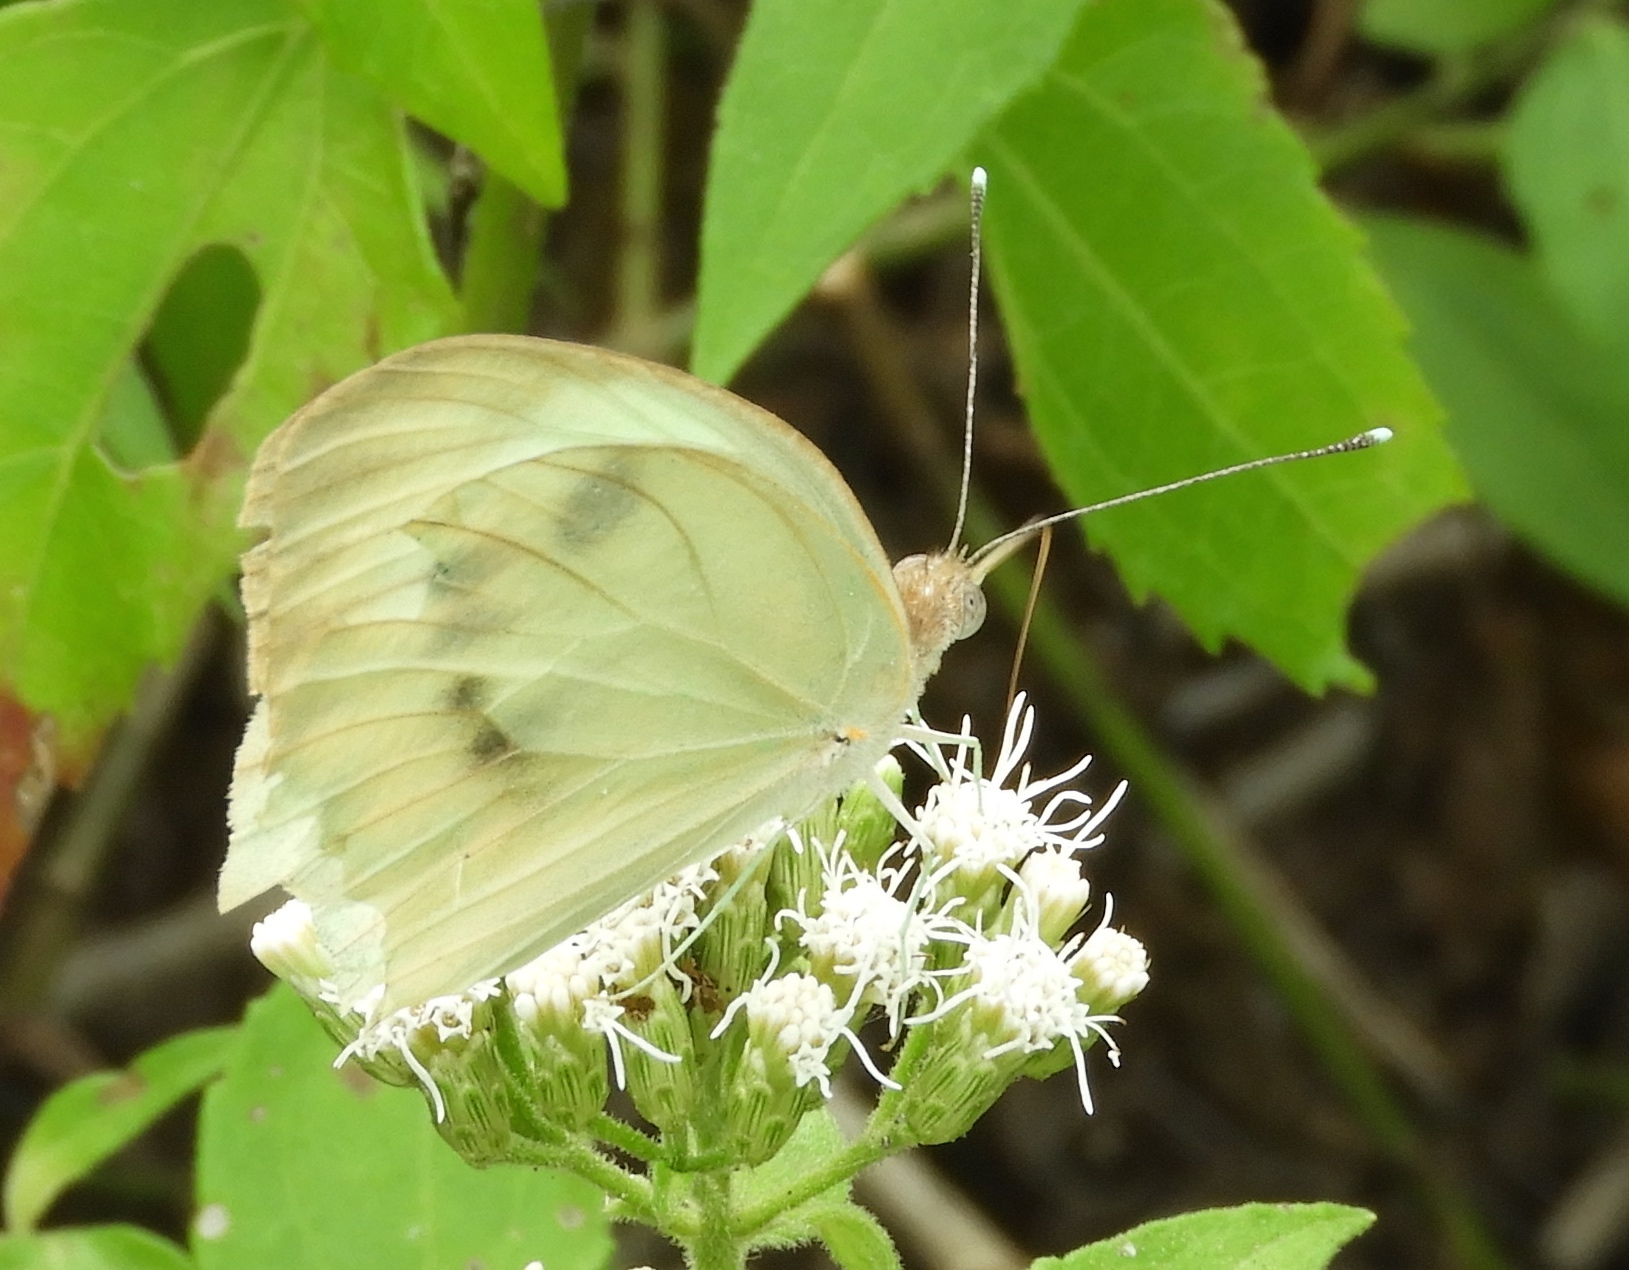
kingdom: Animalia
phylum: Arthropoda
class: Insecta
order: Lepidoptera
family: Pieridae
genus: Ganyra
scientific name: Ganyra josephina
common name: Giant white
